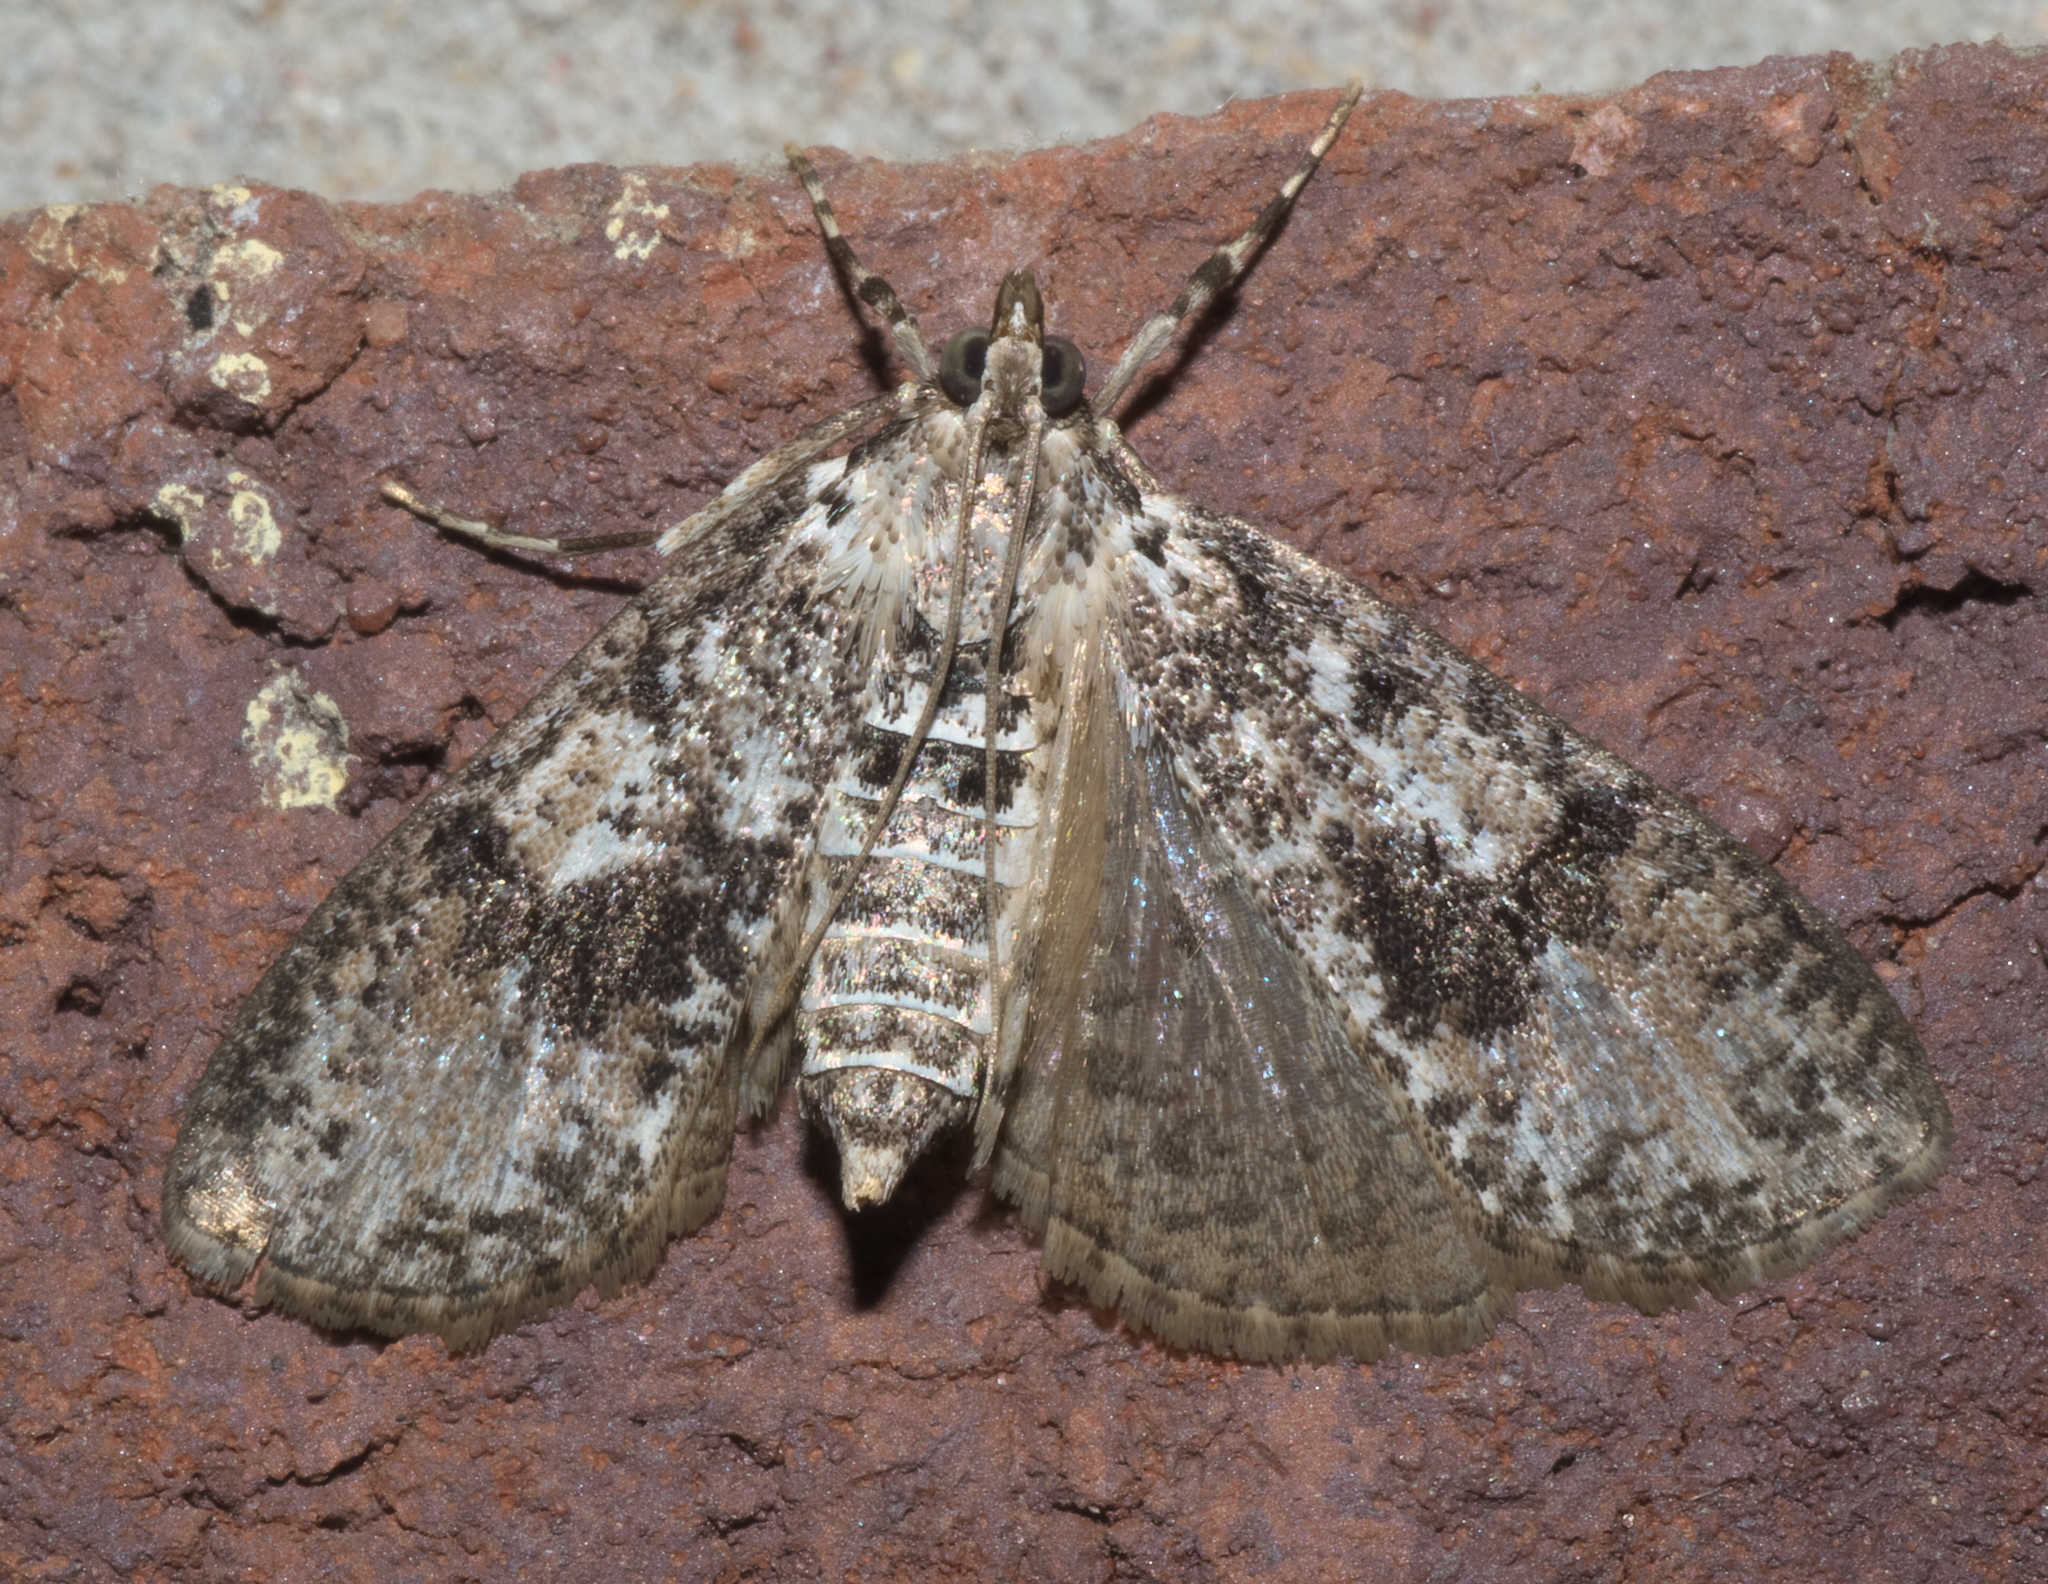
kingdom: Animalia
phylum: Arthropoda
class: Insecta
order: Lepidoptera
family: Crambidae
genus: Palpita
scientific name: Palpita magniferalis
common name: Splendid palpita moth
